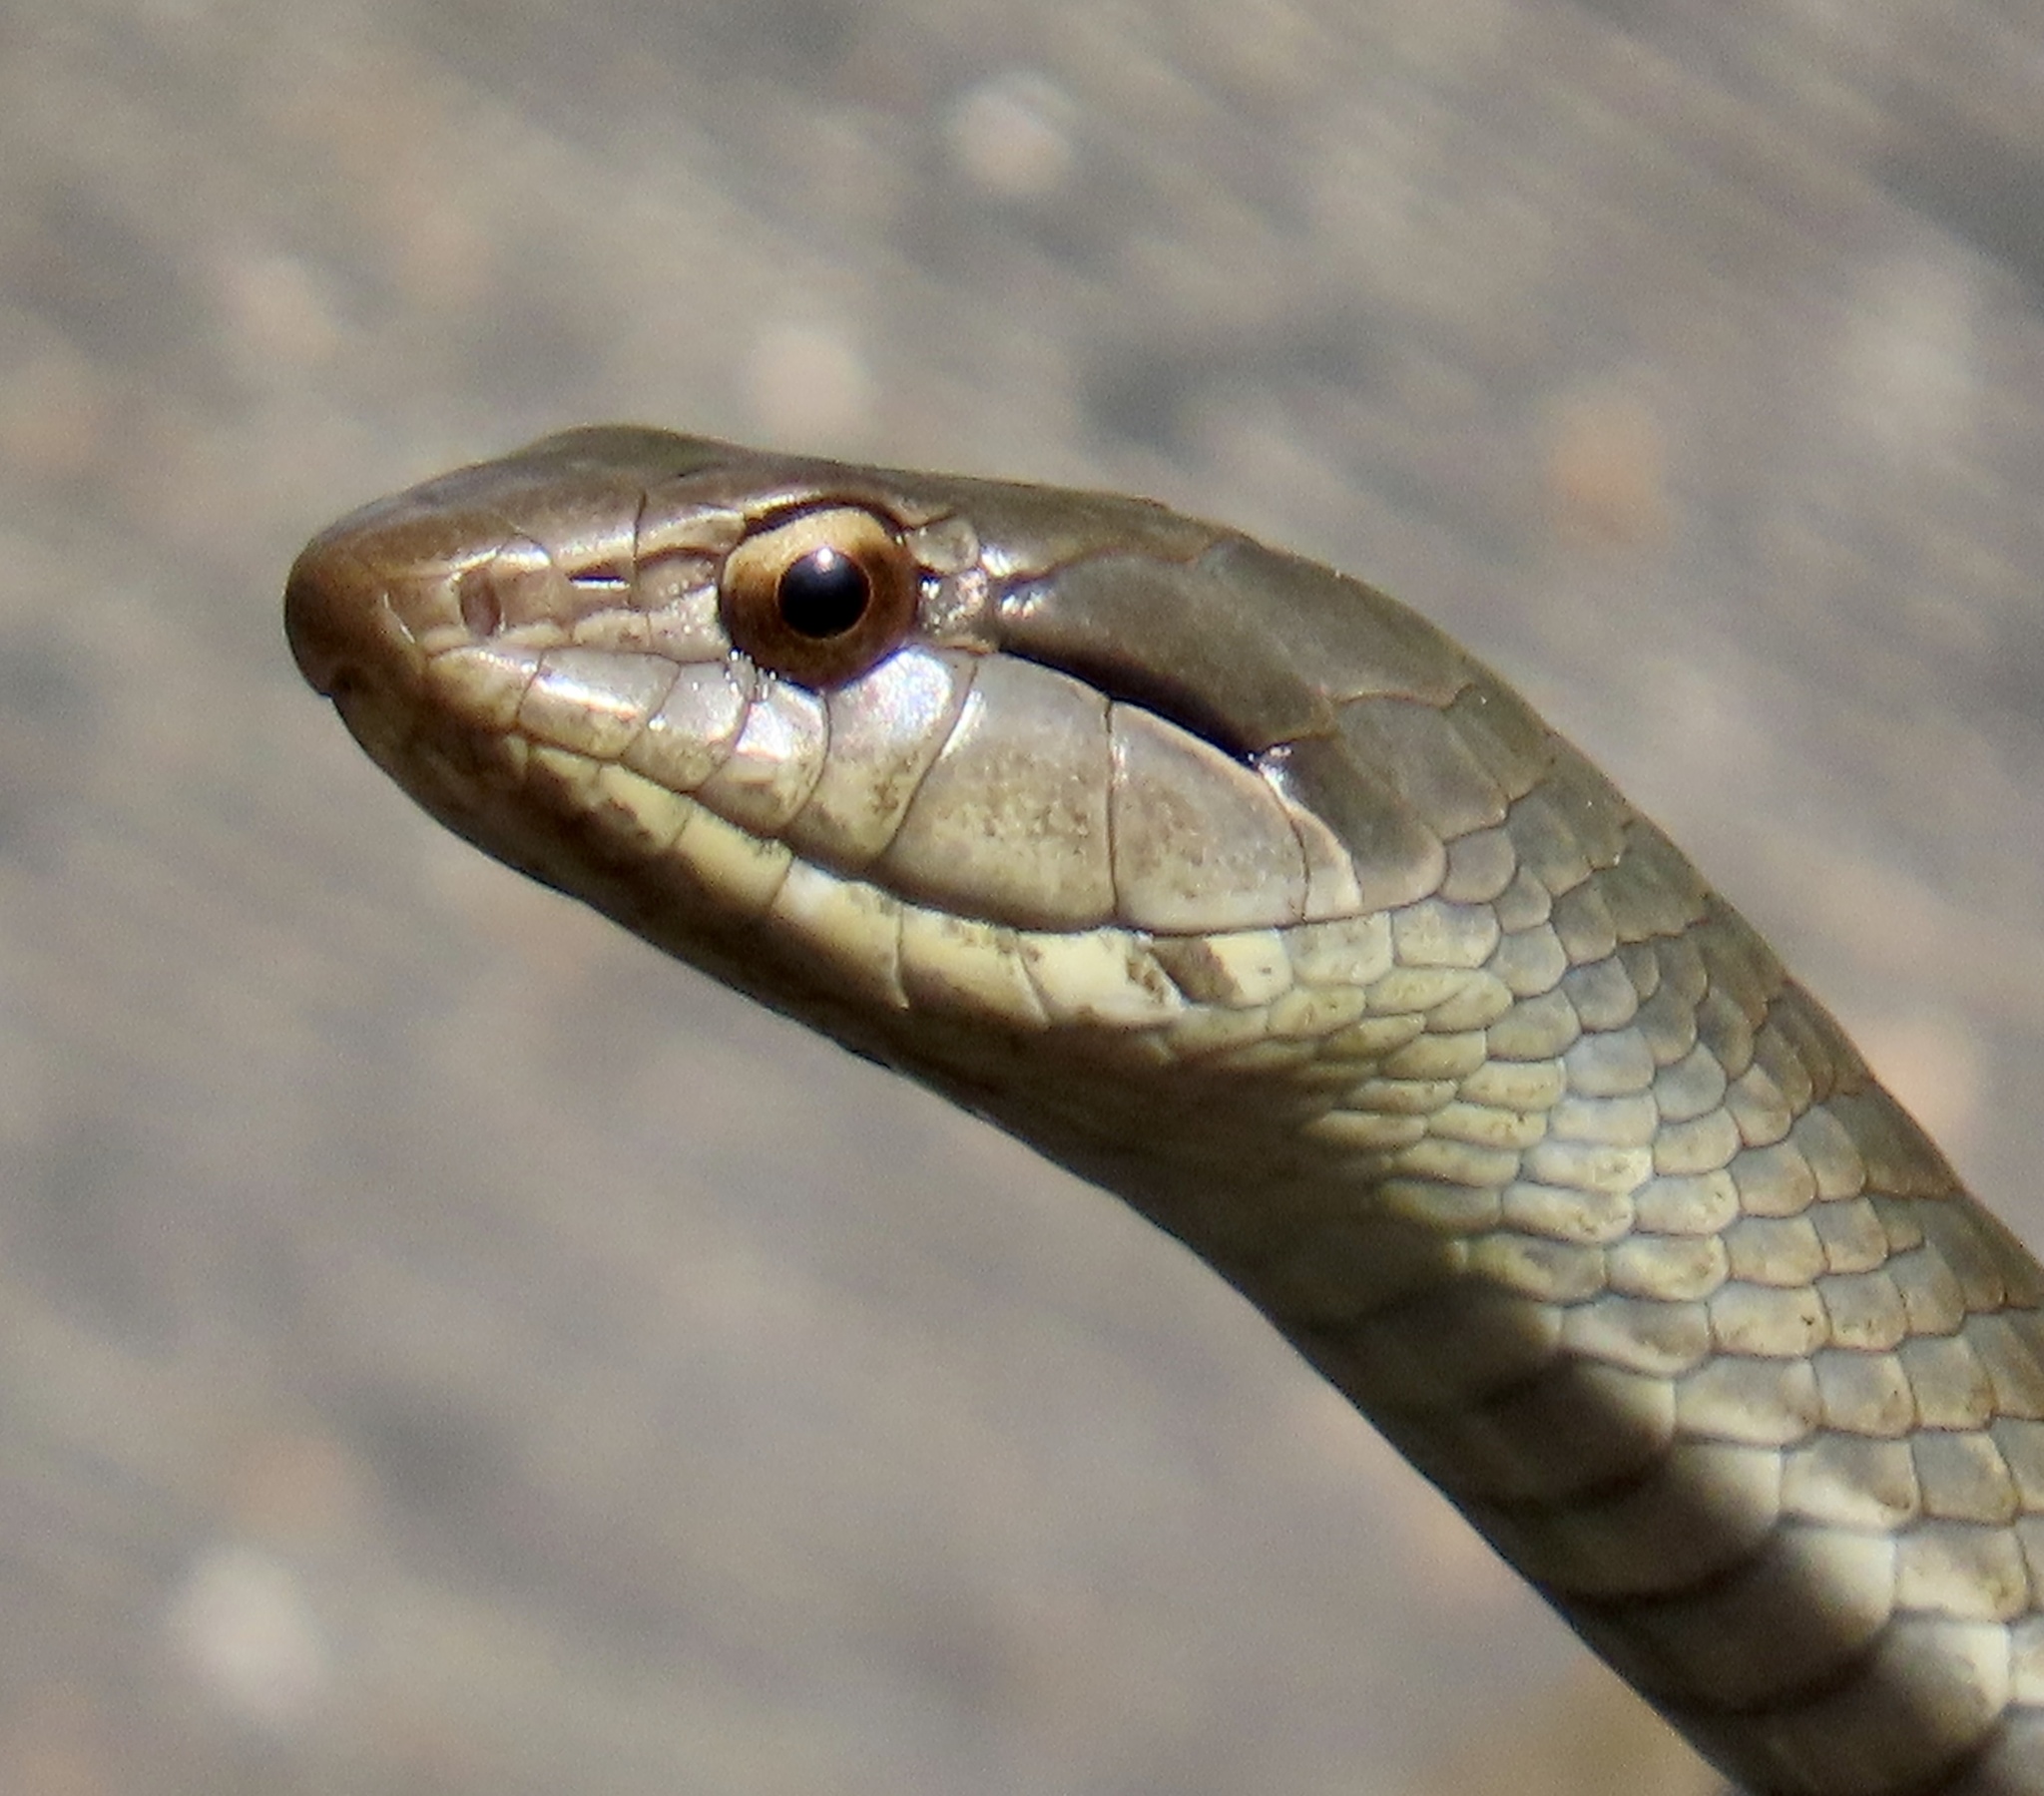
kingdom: Animalia
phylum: Chordata
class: Squamata
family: Colubridae
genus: Cubophis
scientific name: Cubophis cantherigerus
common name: Cuban racer
